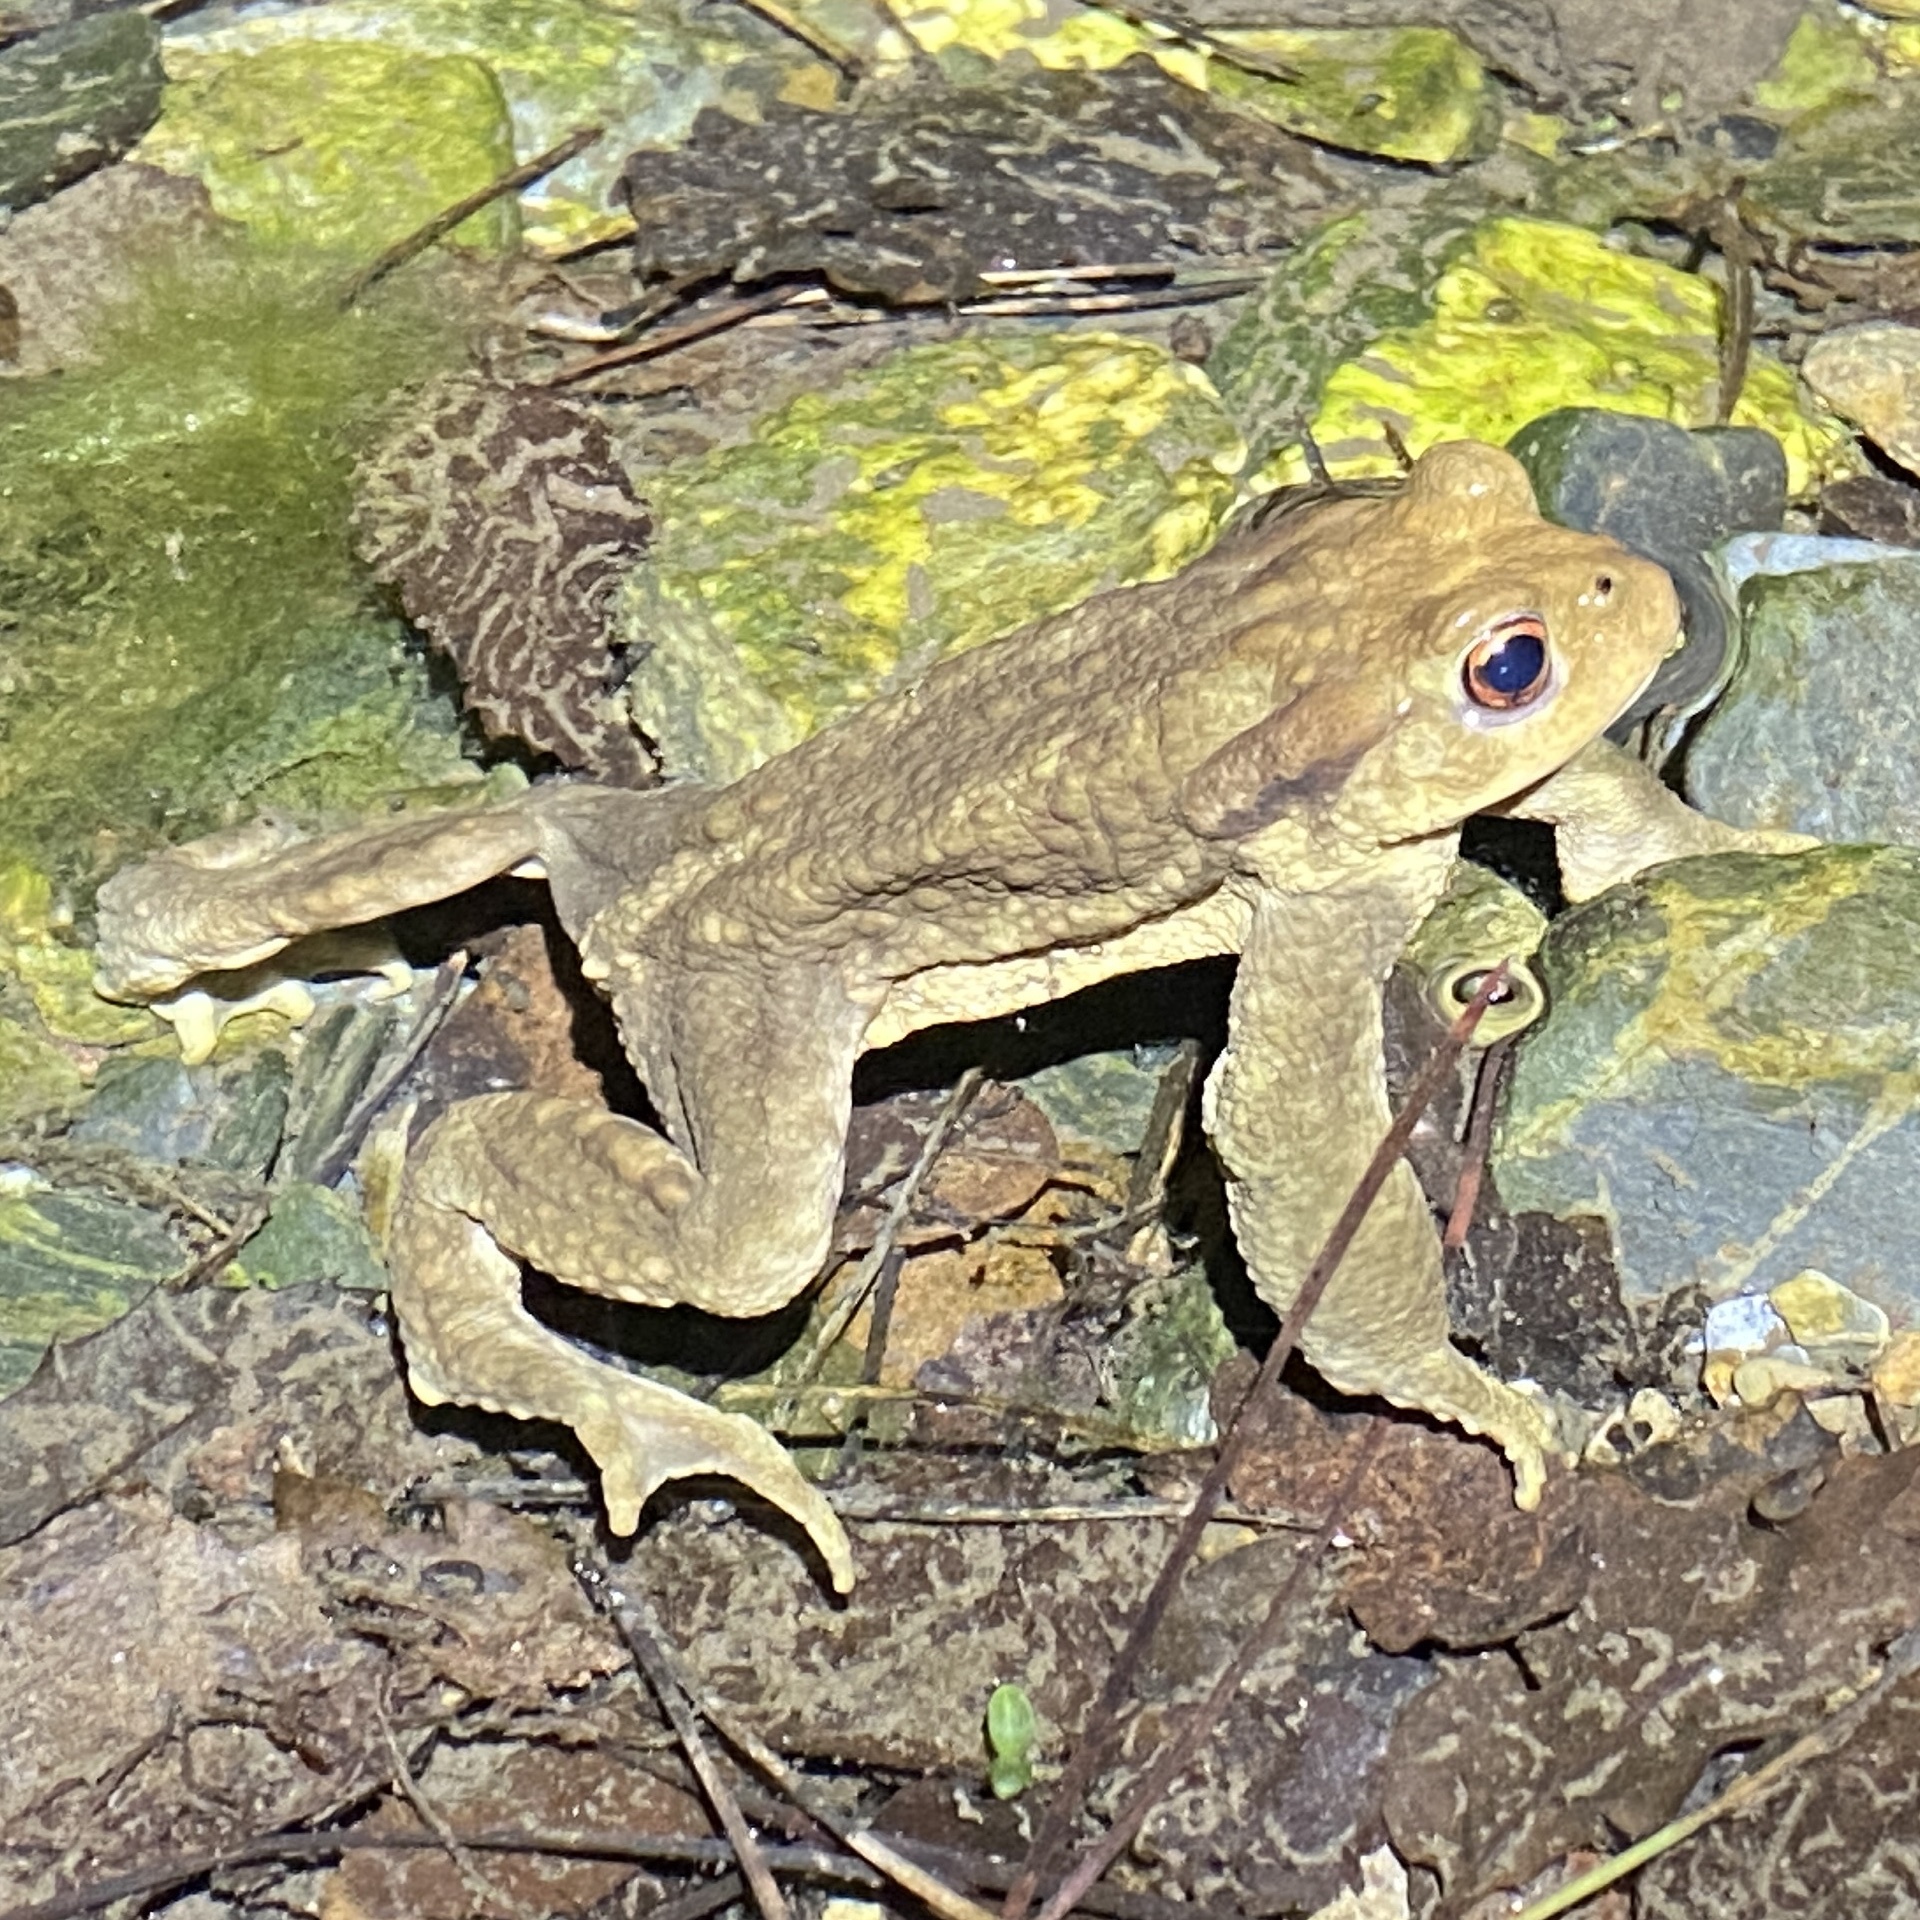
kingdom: Animalia
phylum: Chordata
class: Amphibia
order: Anura
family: Bufonidae
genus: Bufo
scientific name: Bufo spinosus
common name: Western common toad
